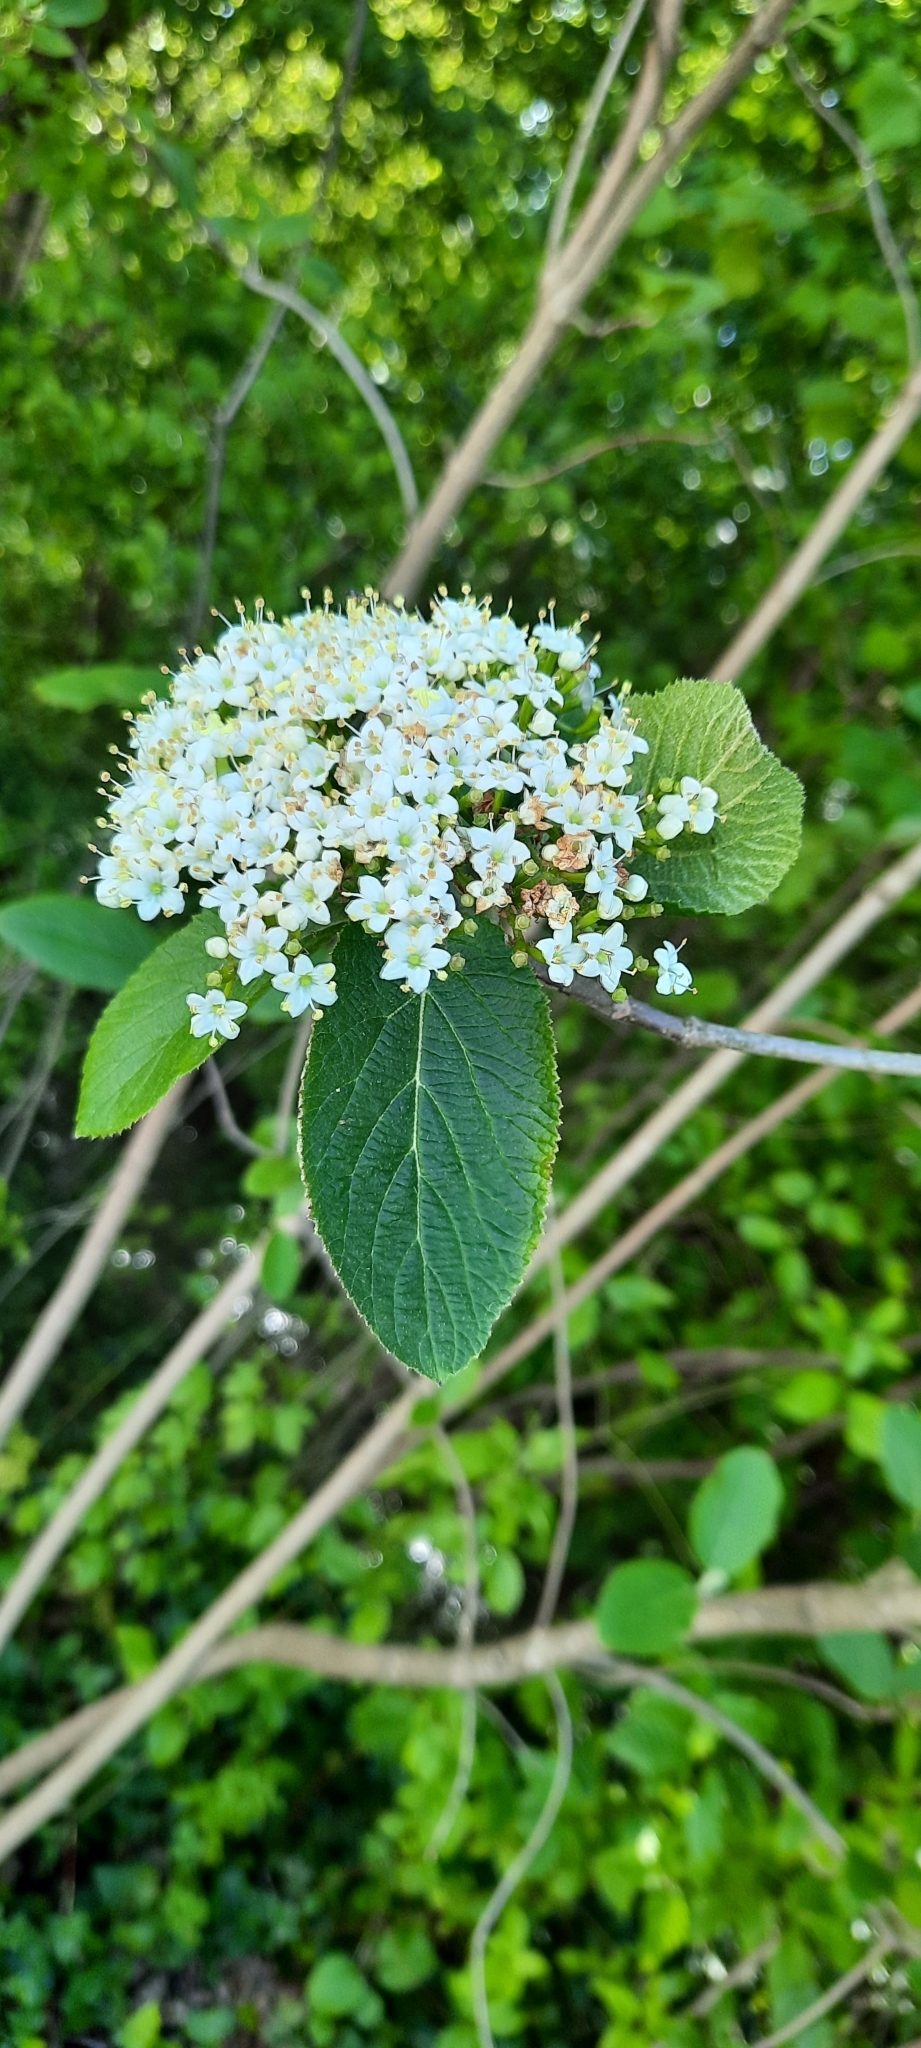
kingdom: Plantae
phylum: Tracheophyta
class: Magnoliopsida
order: Dipsacales
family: Viburnaceae
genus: Viburnum
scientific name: Viburnum lantana
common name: Wayfaring tree
